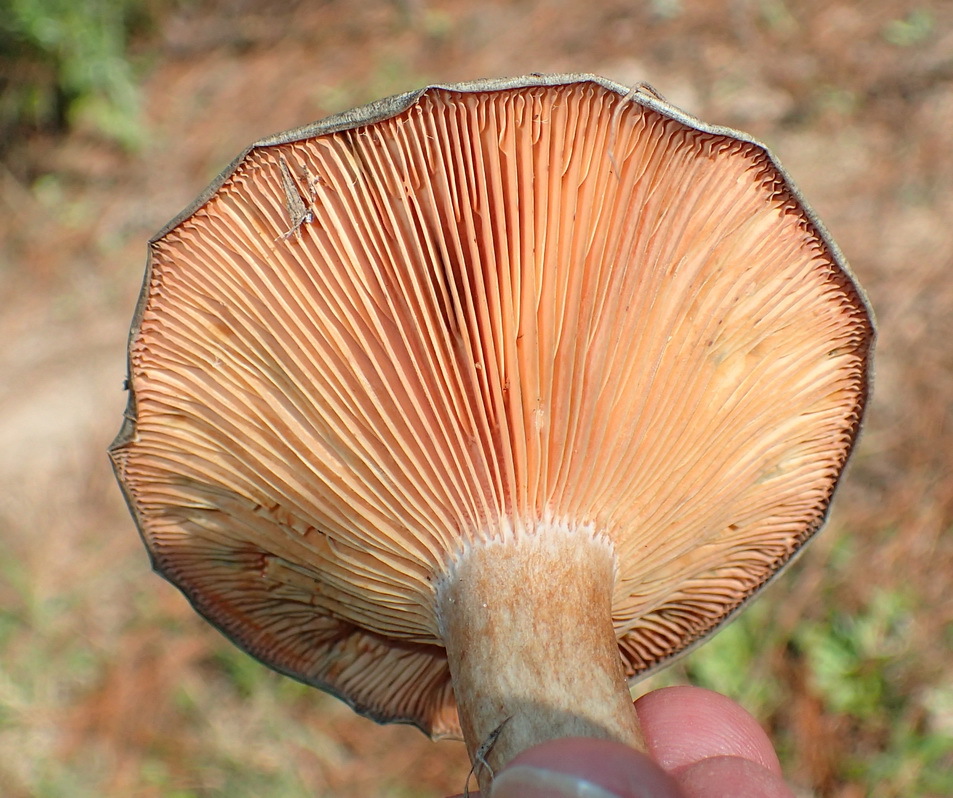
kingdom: Fungi
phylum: Basidiomycota
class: Agaricomycetes
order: Russulales
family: Russulaceae
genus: Lactarius
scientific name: Lactarius deliciosus
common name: Saffron milk-cap
